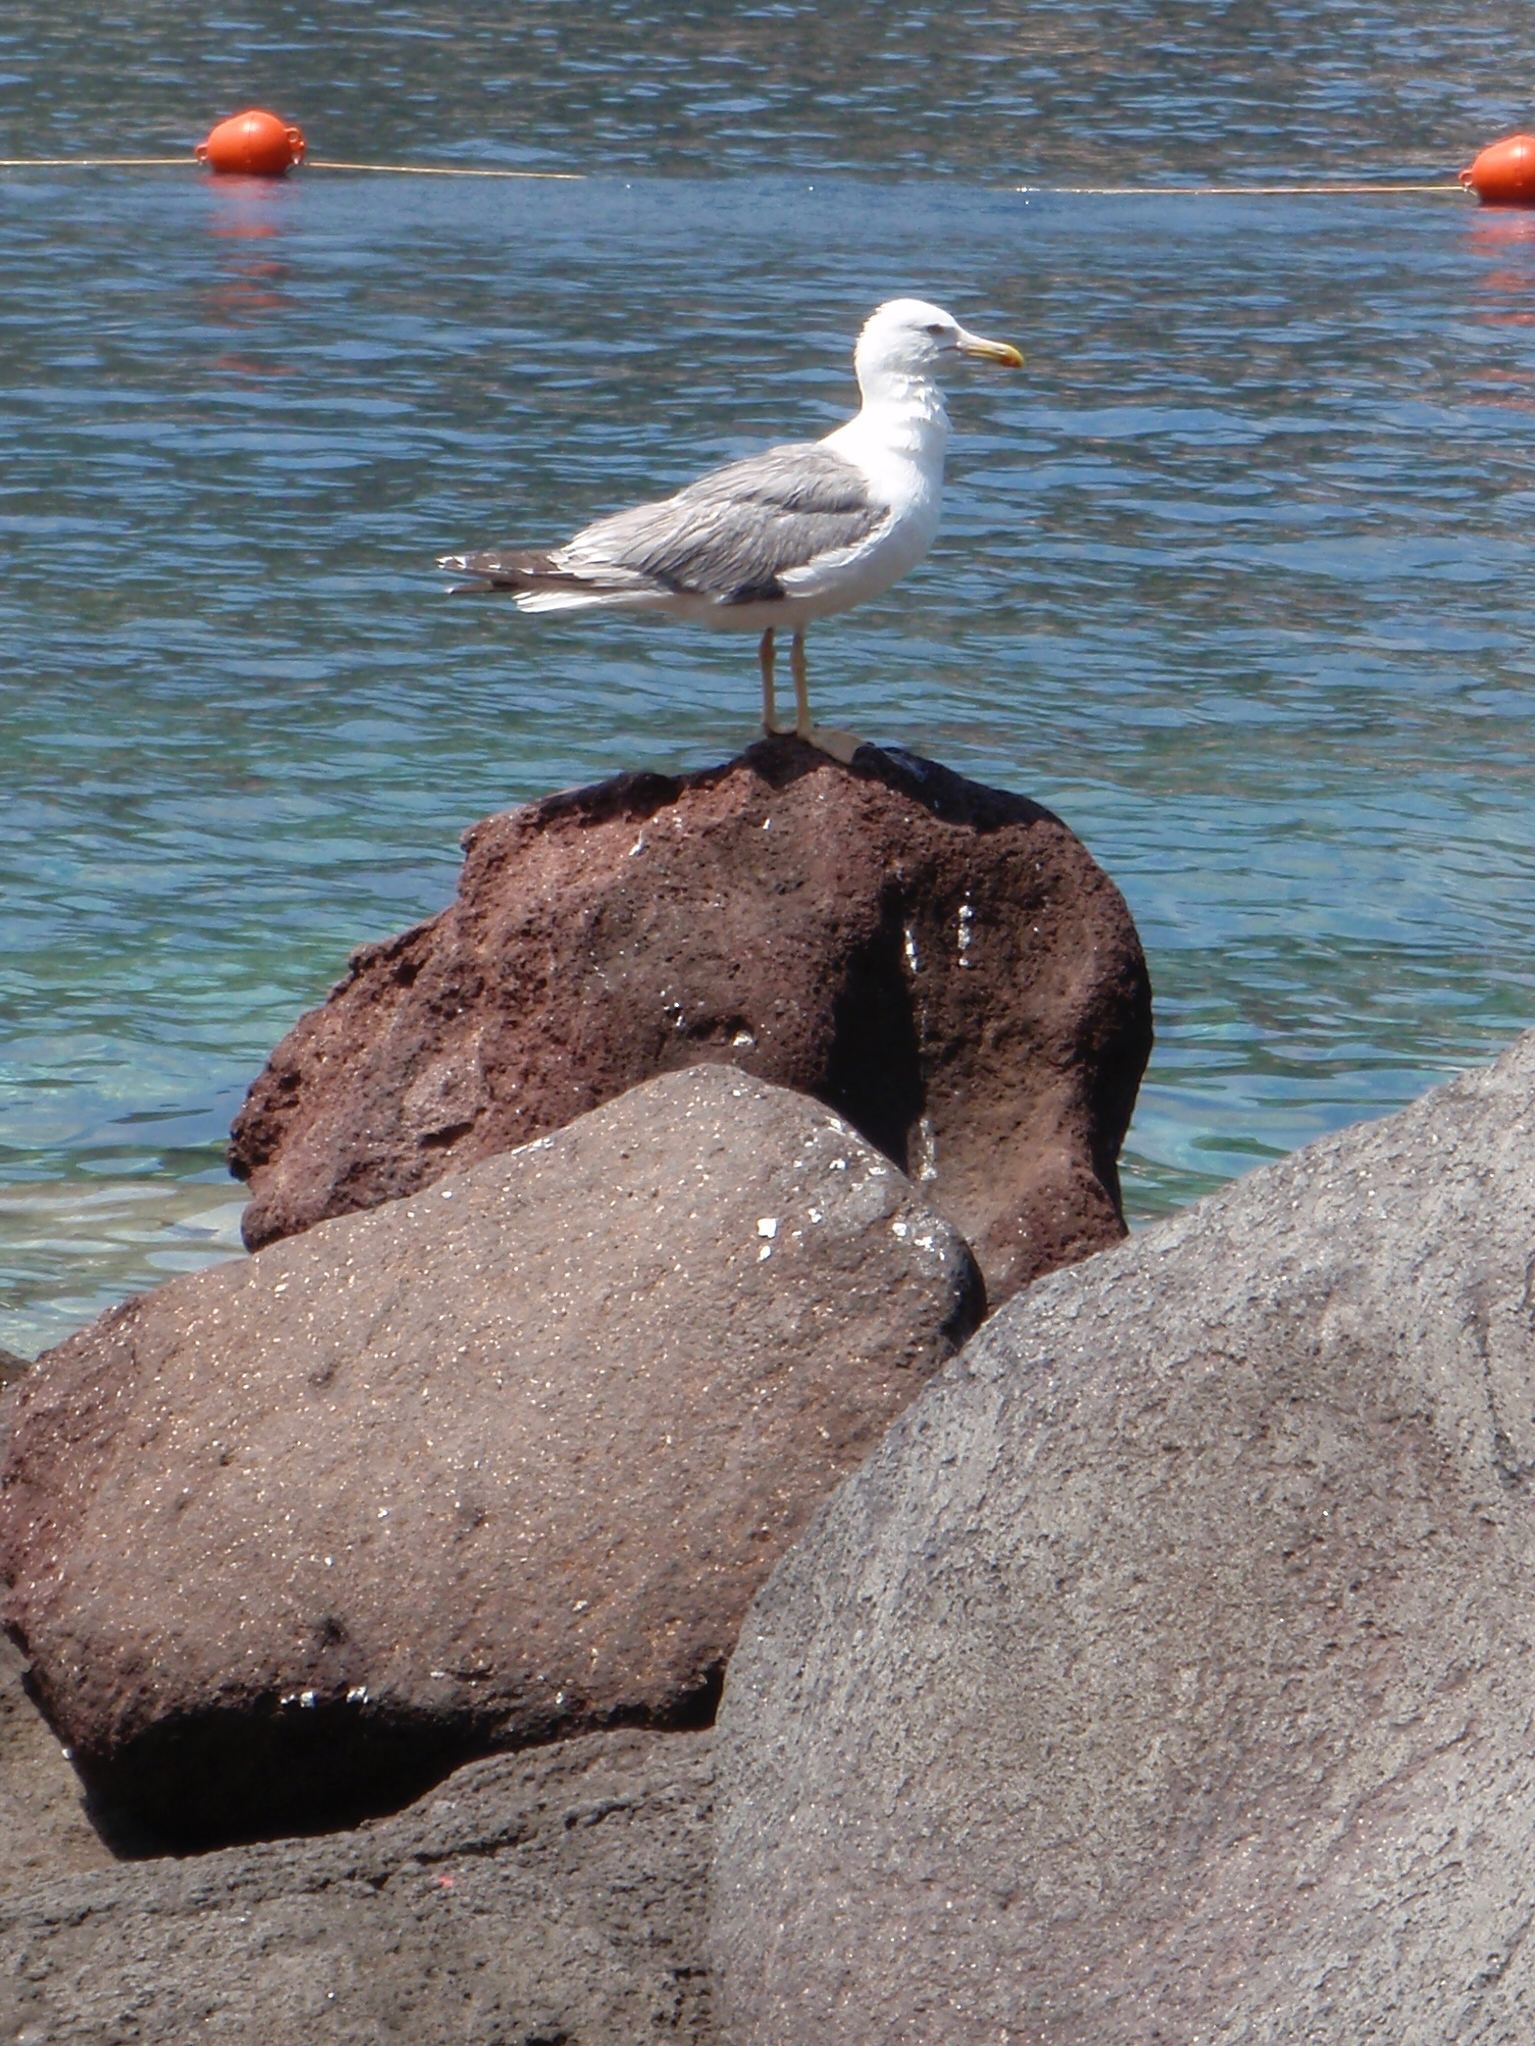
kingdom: Animalia
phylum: Chordata
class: Aves
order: Charadriiformes
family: Laridae
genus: Larus
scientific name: Larus michahellis
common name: Yellow-legged gull
